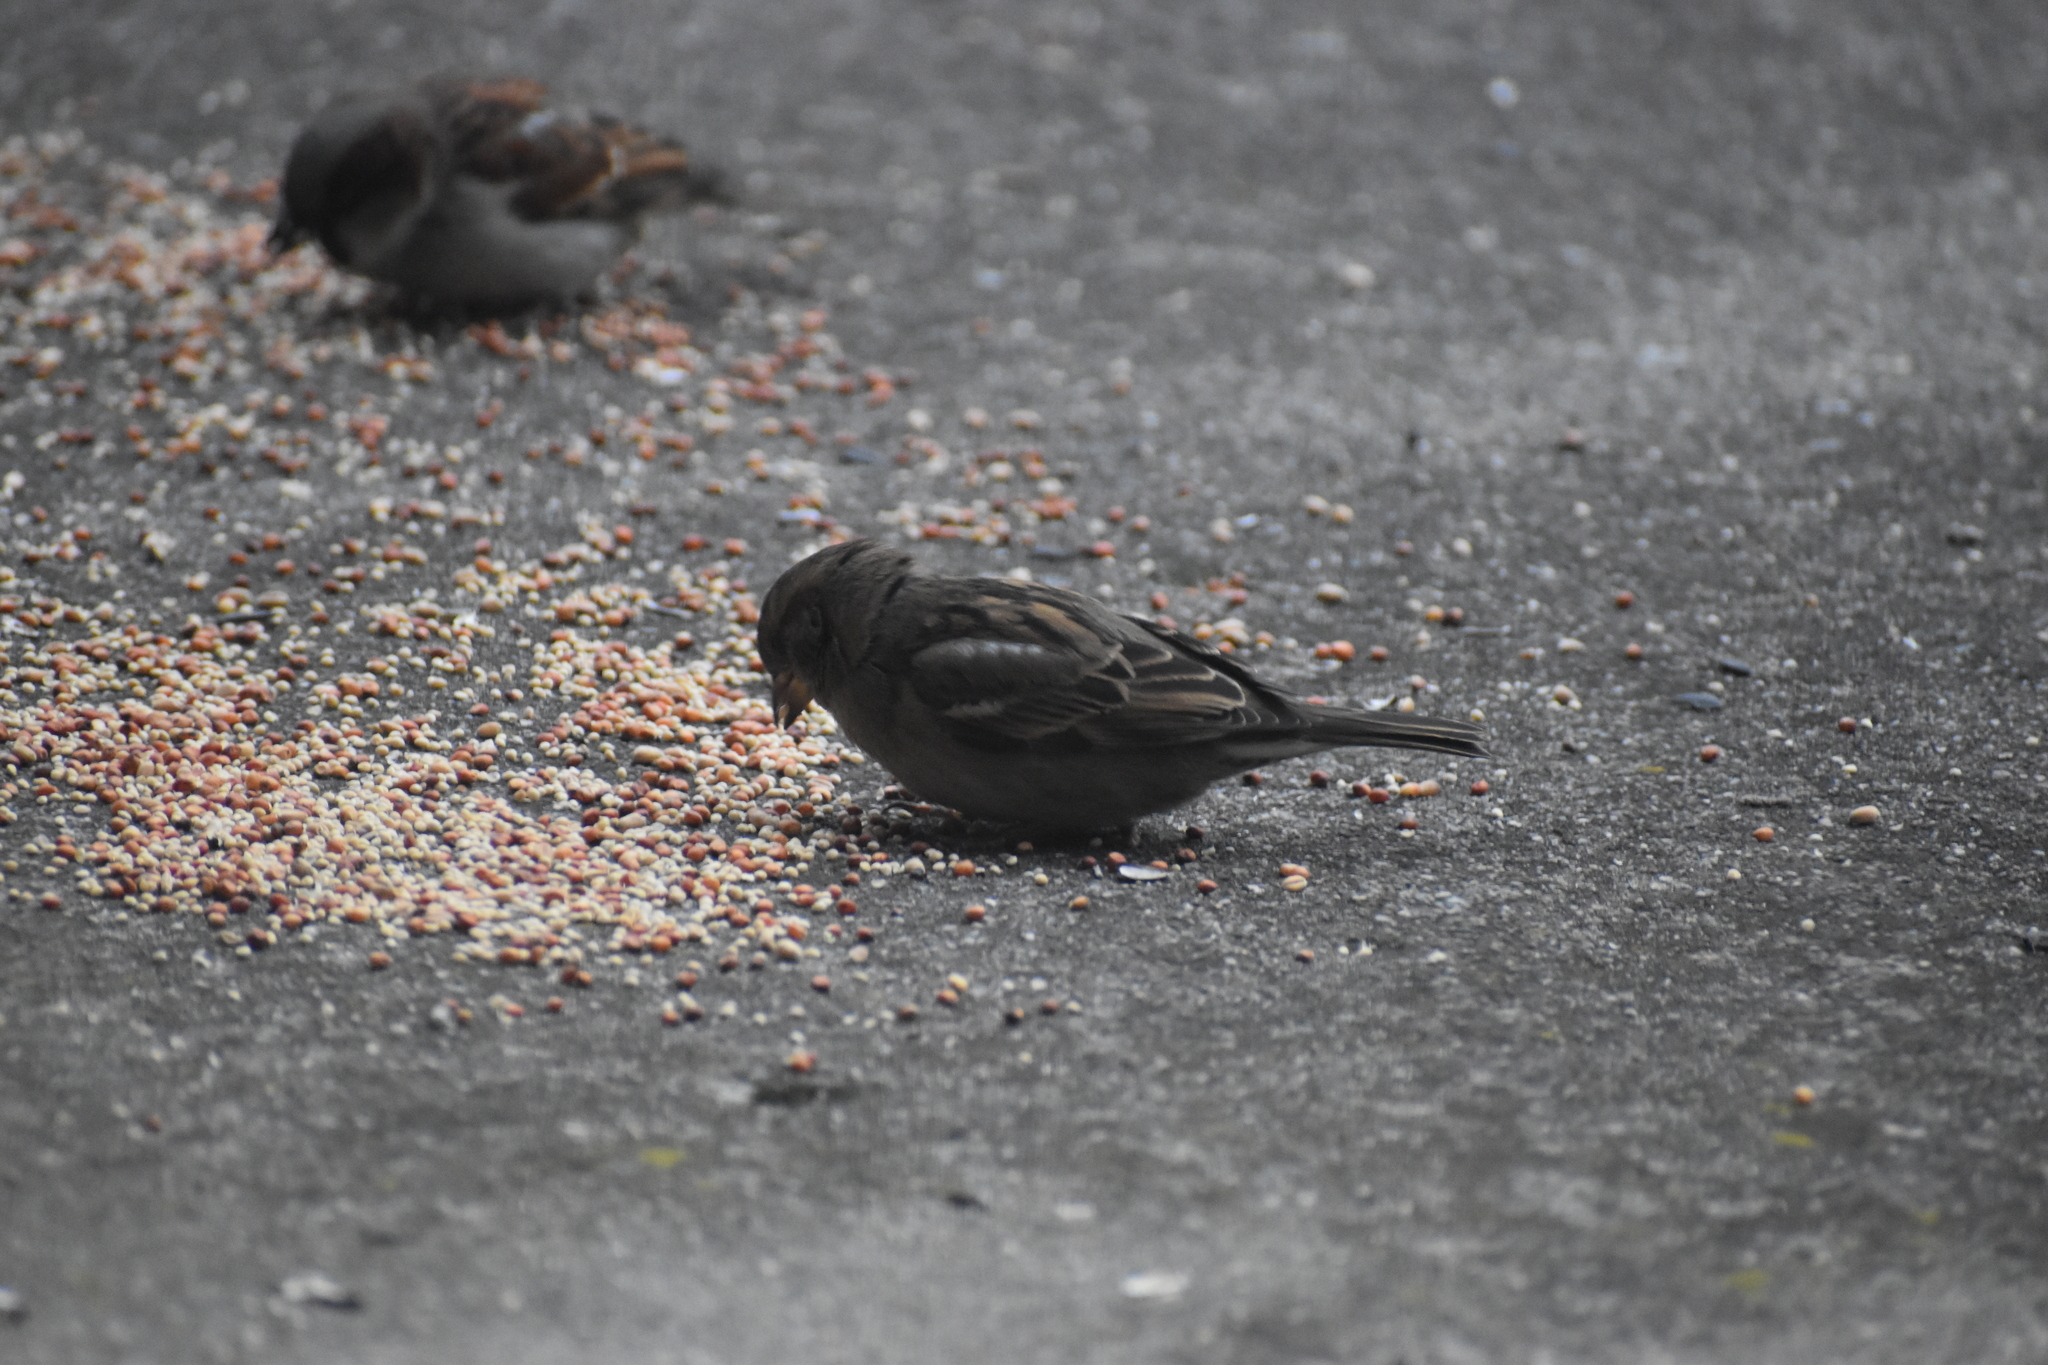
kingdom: Animalia
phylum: Chordata
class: Aves
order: Passeriformes
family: Passeridae
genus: Passer
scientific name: Passer domesticus
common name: House sparrow
